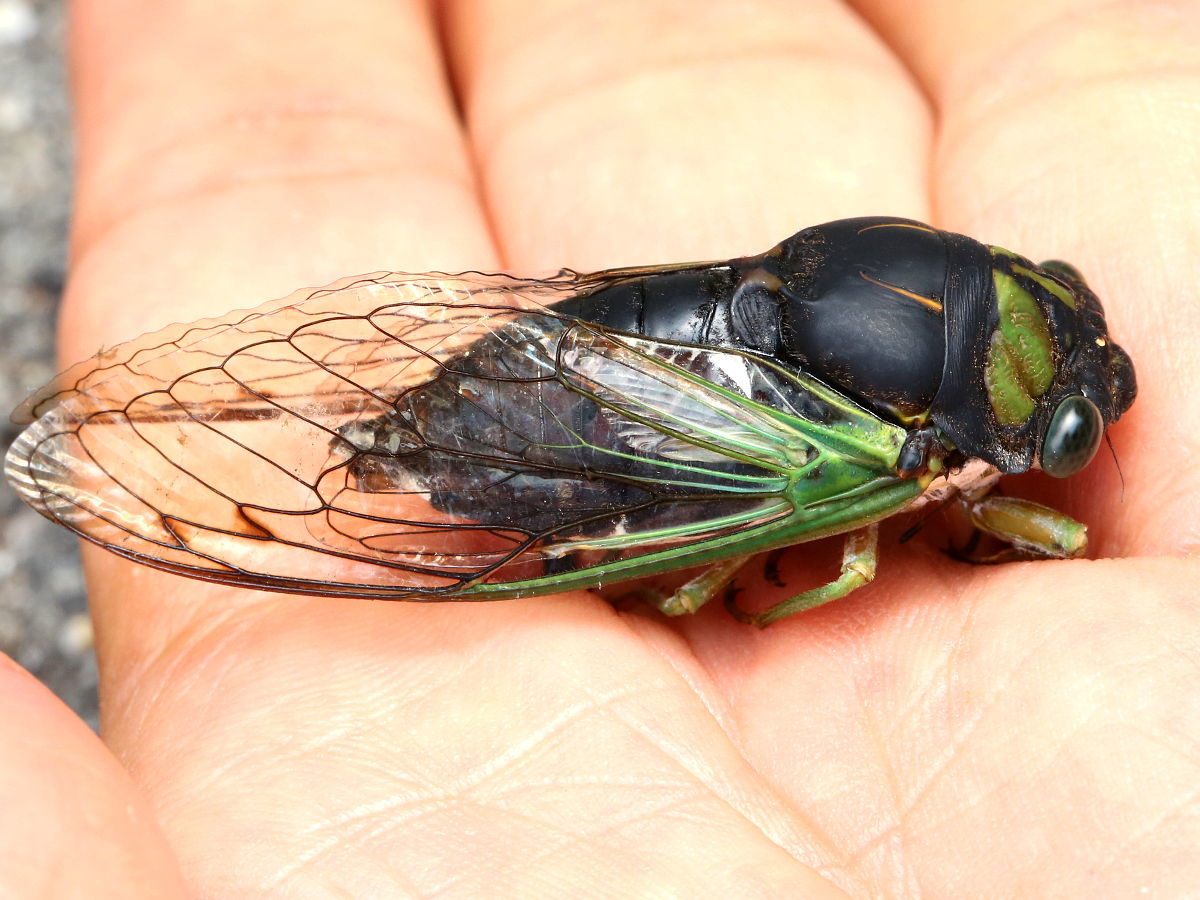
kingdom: Animalia
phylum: Arthropoda
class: Insecta
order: Hemiptera
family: Cicadidae
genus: Neotibicen
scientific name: Neotibicen tibicen
